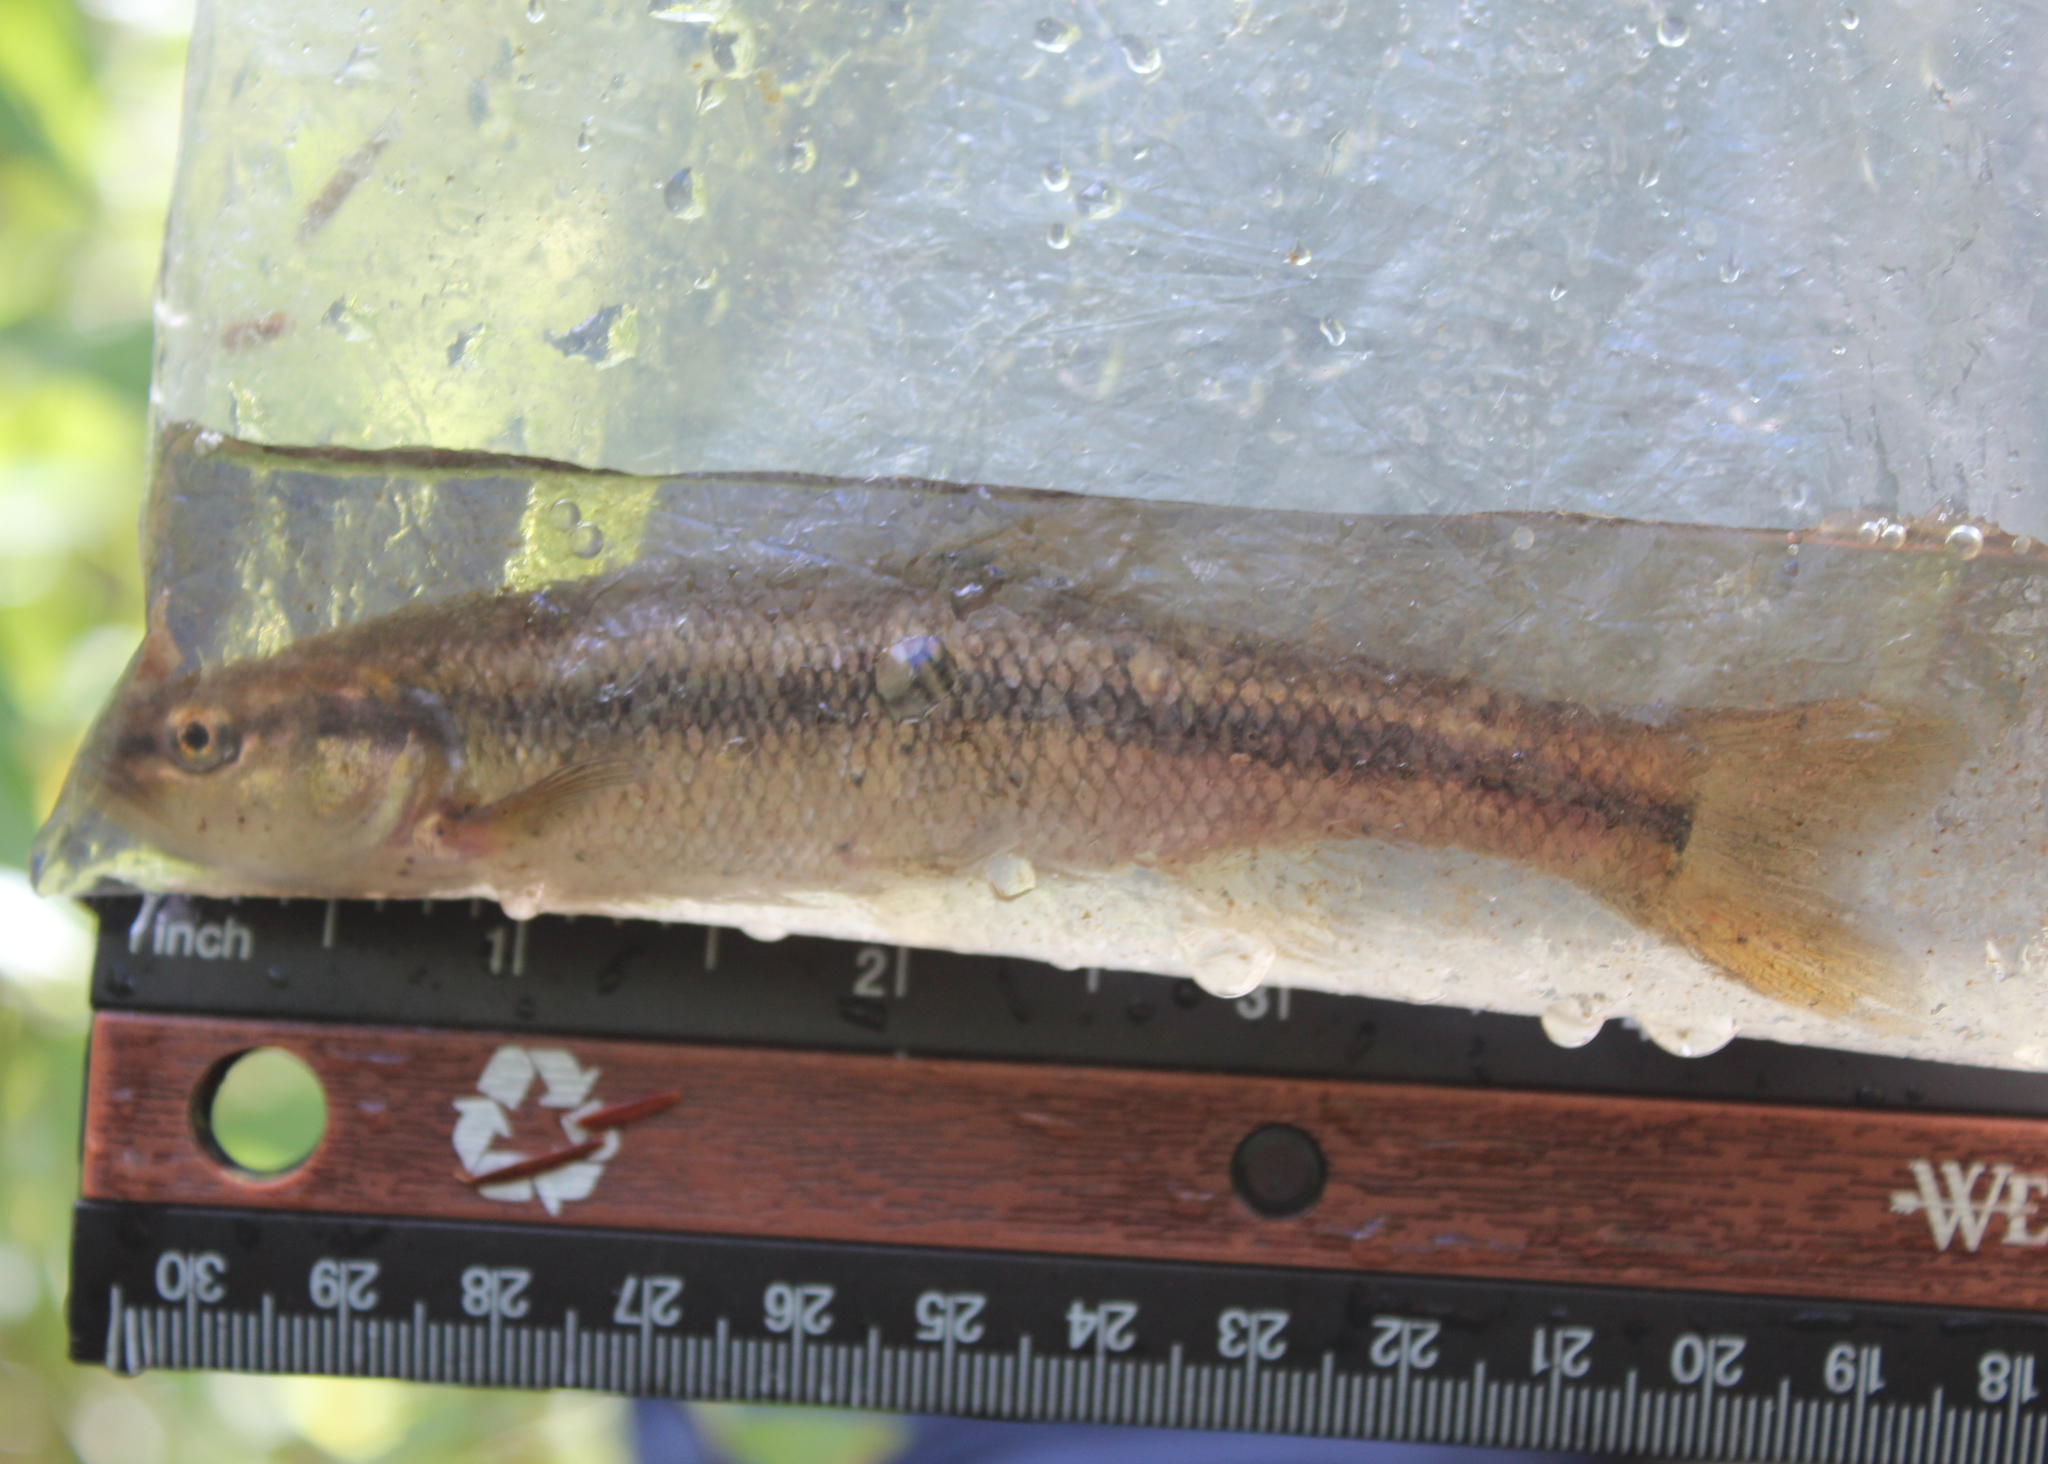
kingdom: Animalia
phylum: Chordata
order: Cypriniformes
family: Cyprinidae
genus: Semotilus
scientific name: Semotilus atromaculatus
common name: Creek chub
